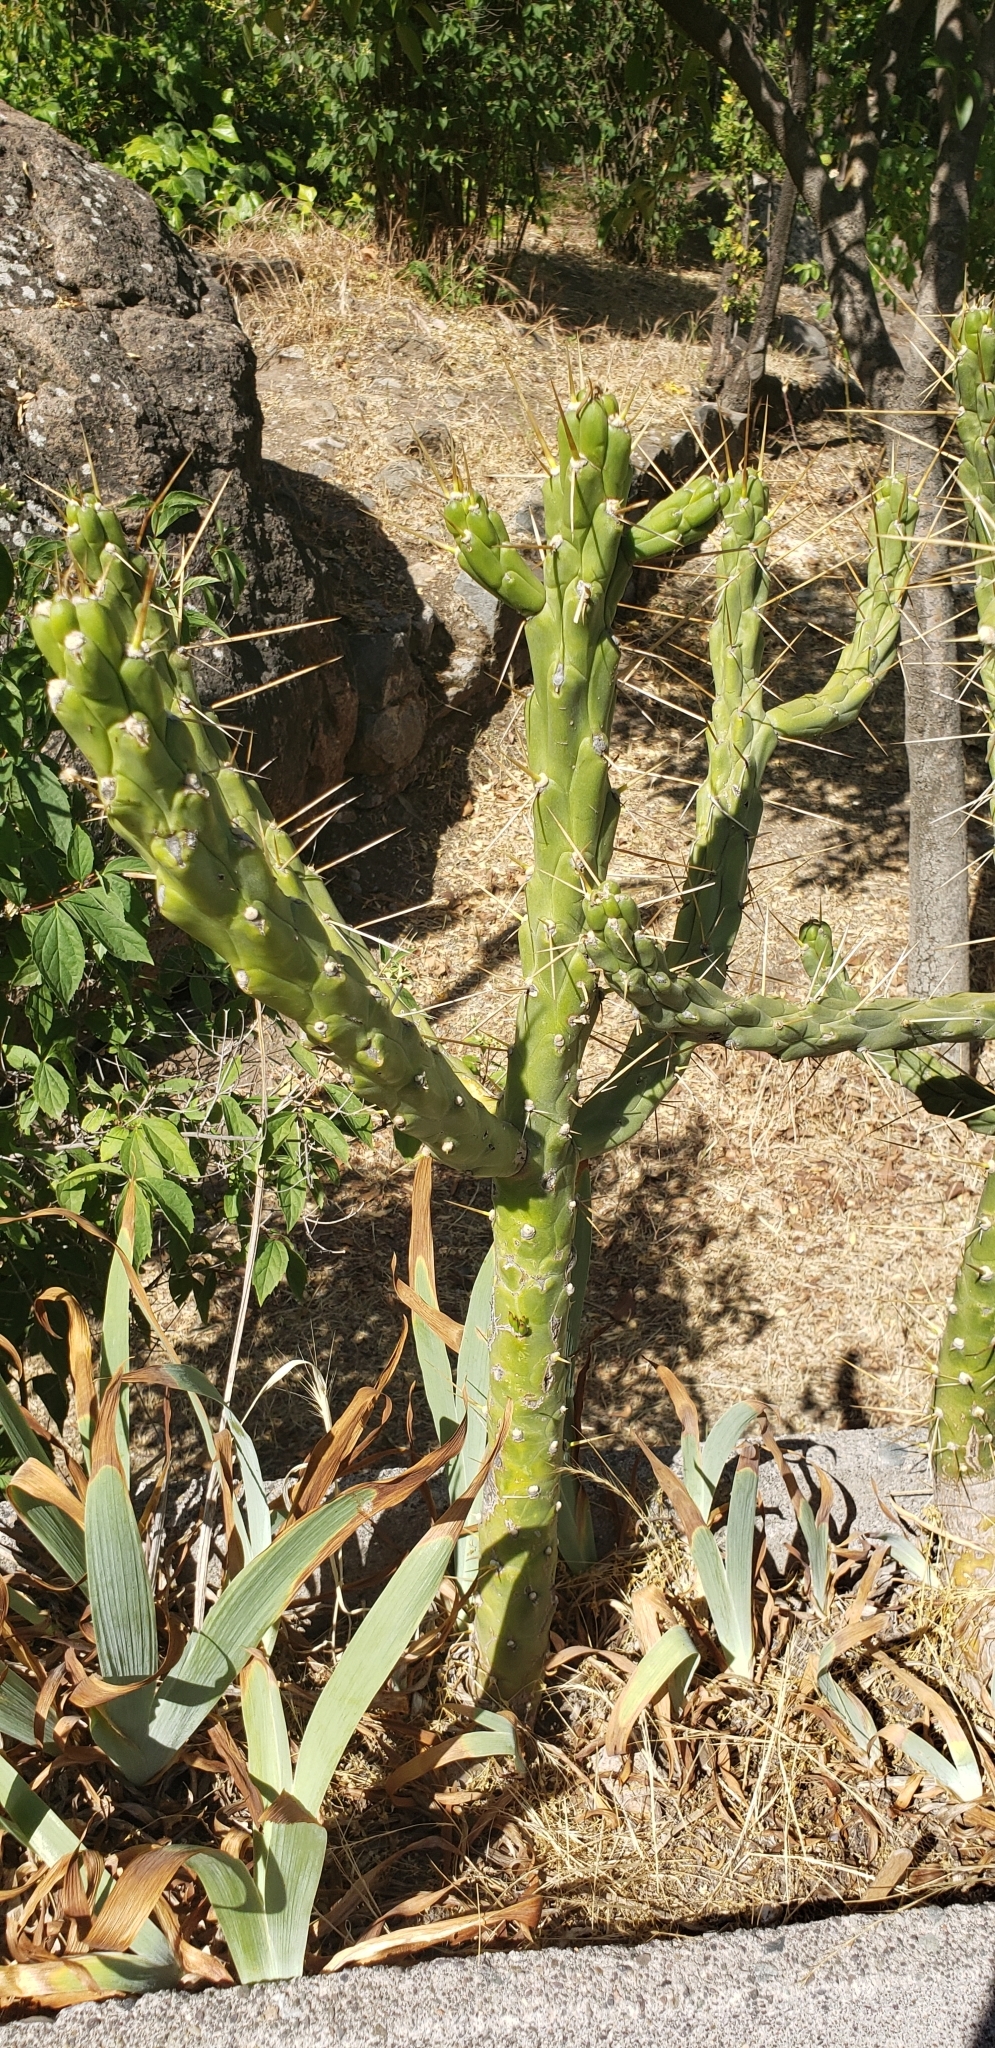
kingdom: Plantae
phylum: Tracheophyta
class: Magnoliopsida
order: Caryophyllales
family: Cactaceae
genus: Austrocylindropuntia
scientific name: Austrocylindropuntia subulata
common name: Eve's needle cactus
